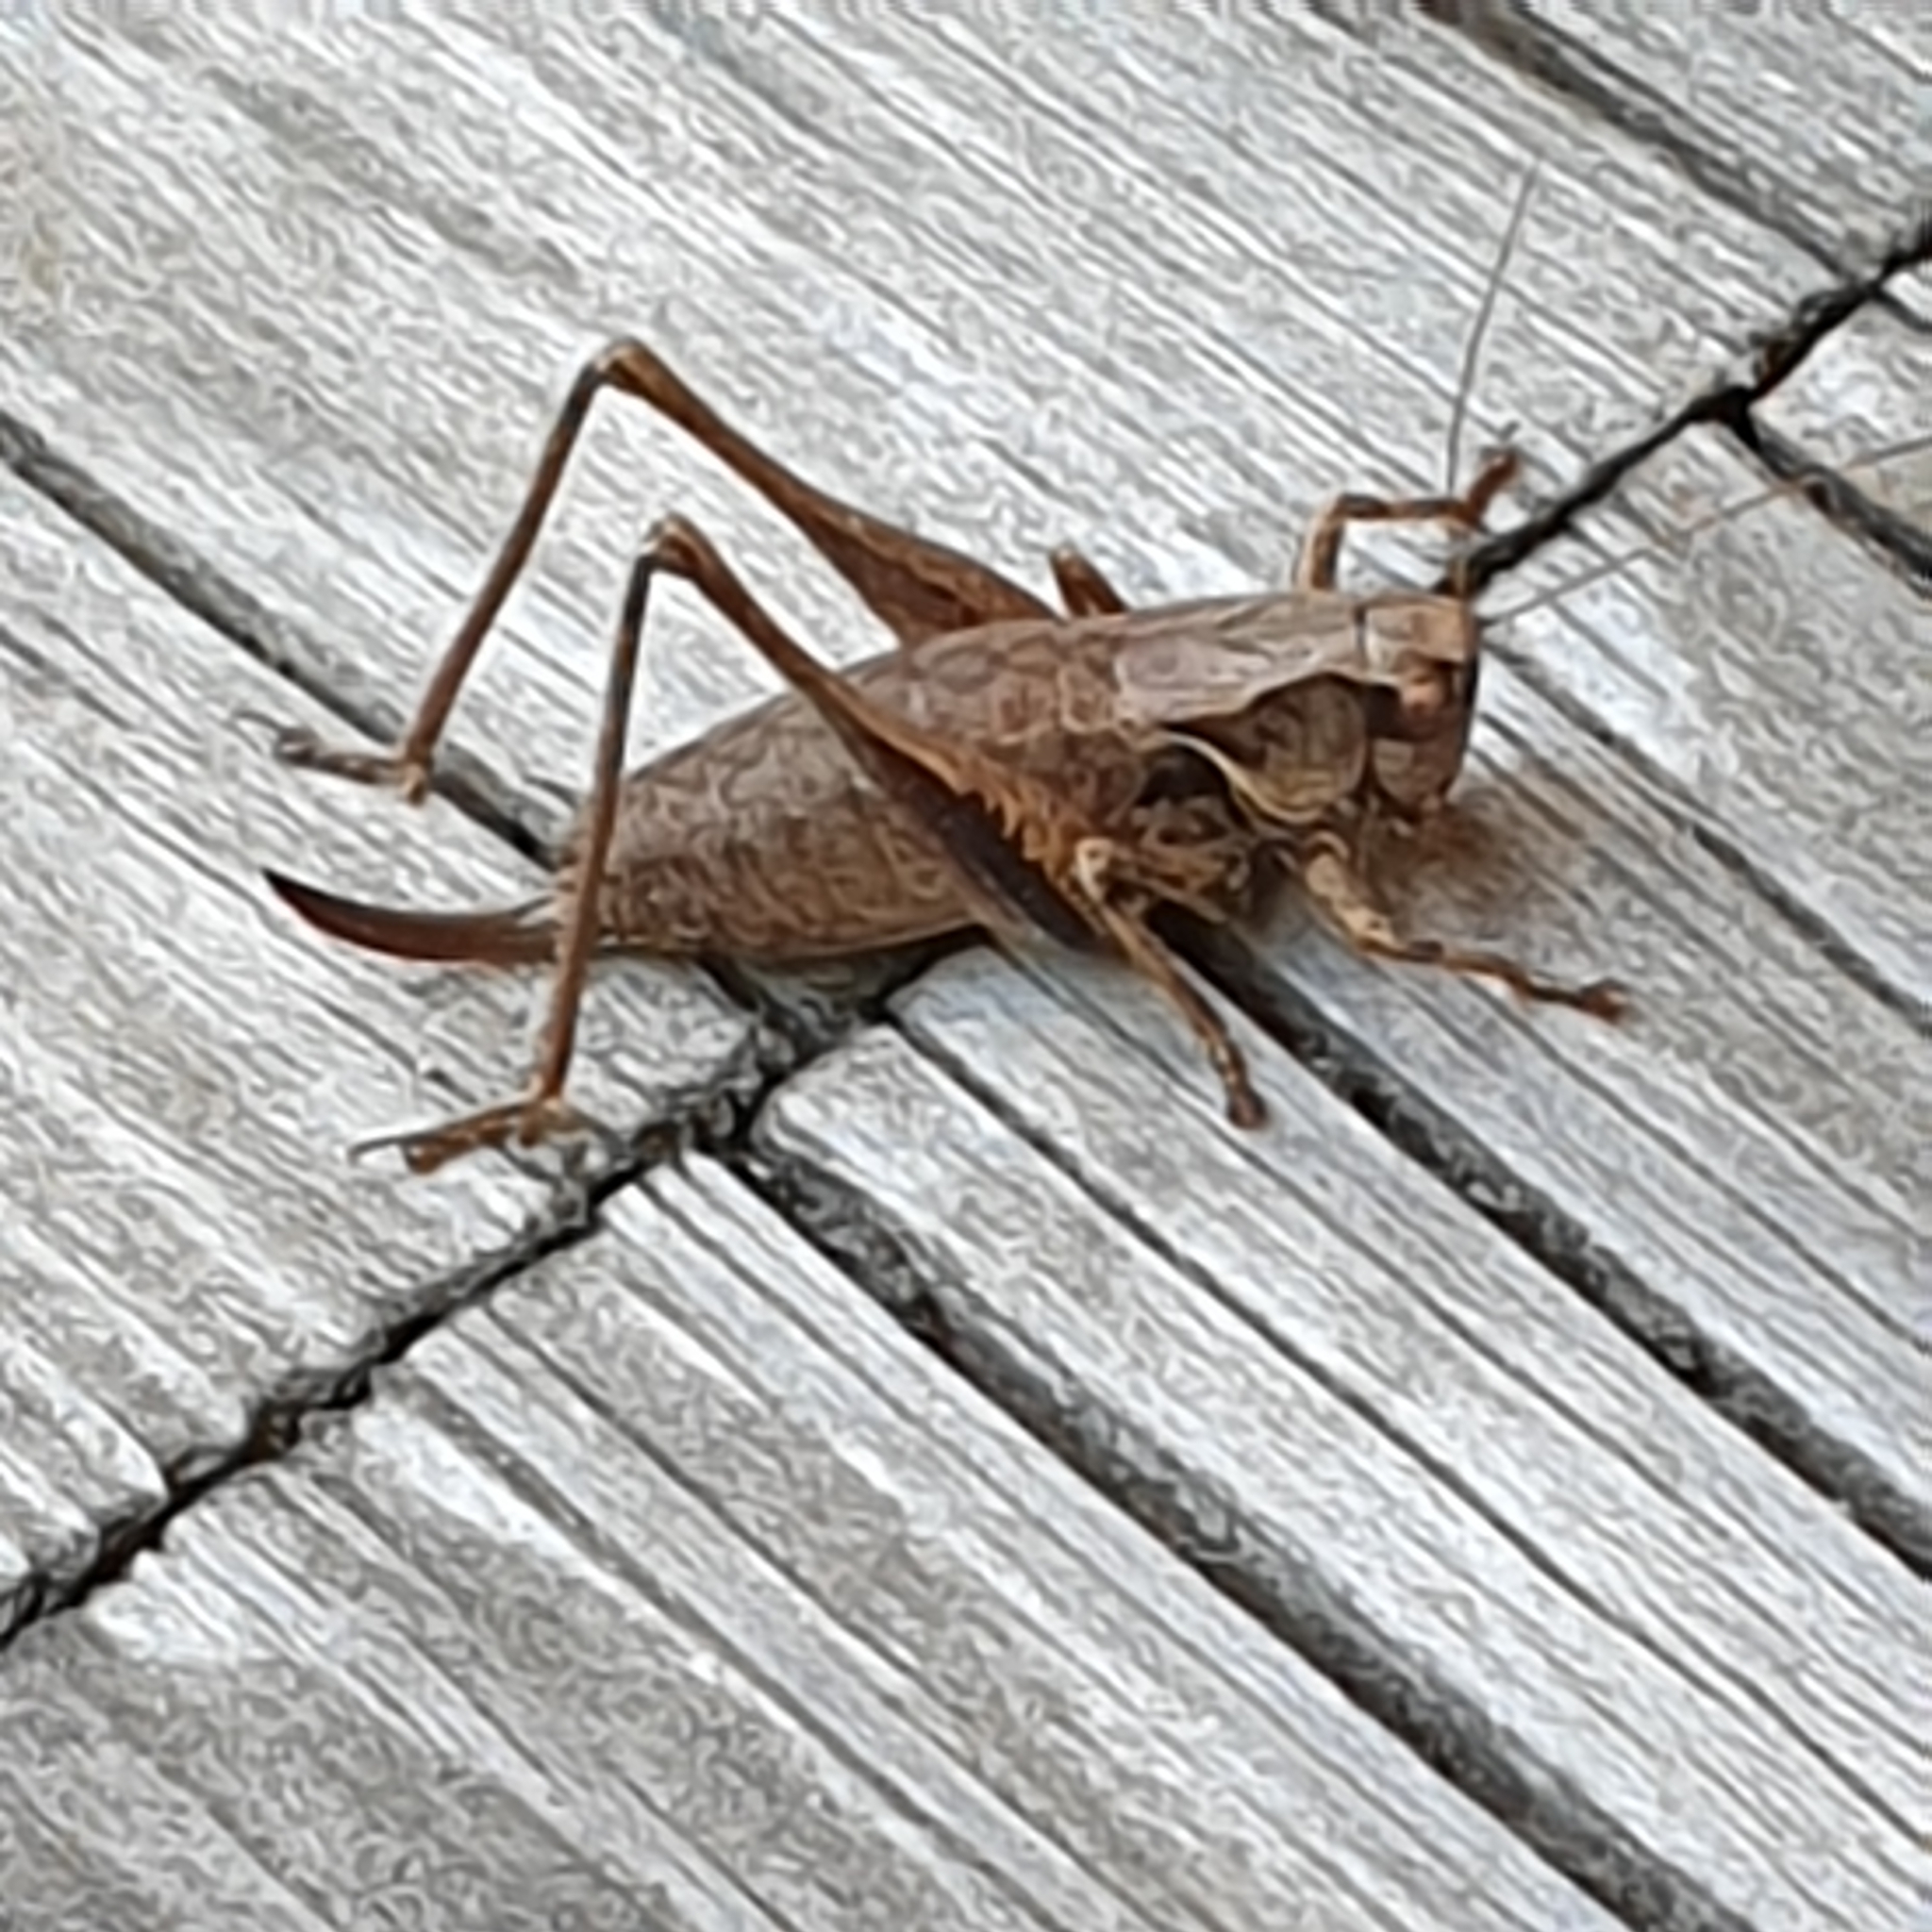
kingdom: Animalia
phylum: Arthropoda
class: Insecta
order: Orthoptera
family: Tettigoniidae
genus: Pholidoptera
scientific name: Pholidoptera griseoaptera
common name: Dark bush-cricket
